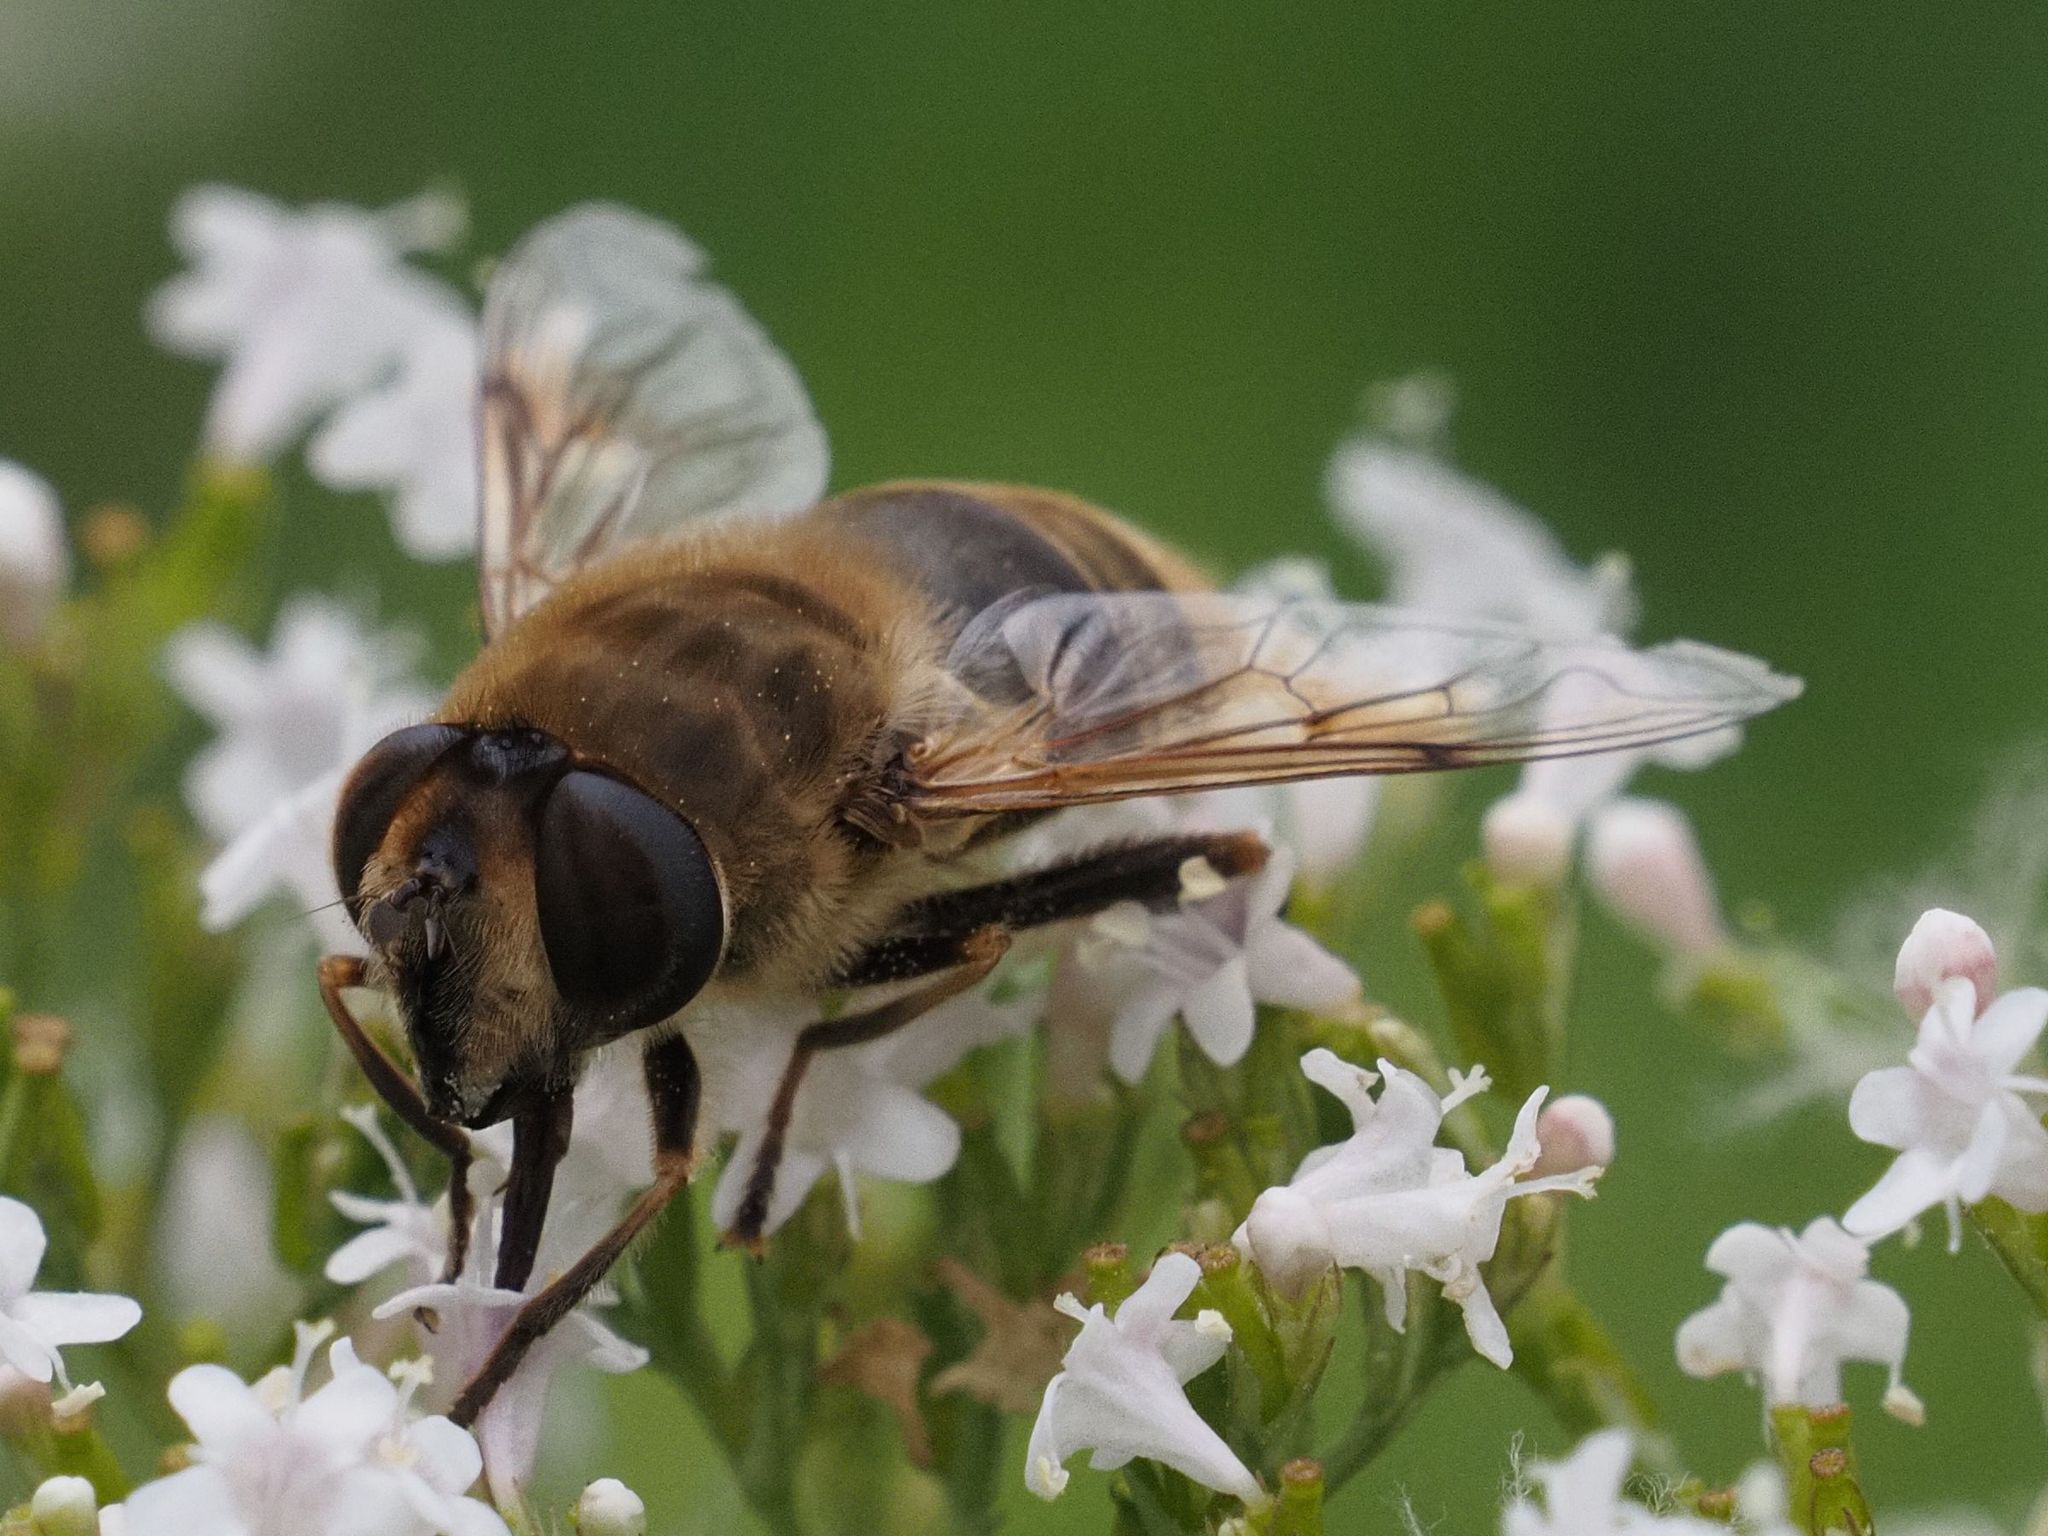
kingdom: Animalia
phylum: Arthropoda
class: Insecta
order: Diptera
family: Syrphidae
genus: Eristalis
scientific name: Eristalis tenax
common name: Drone fly
